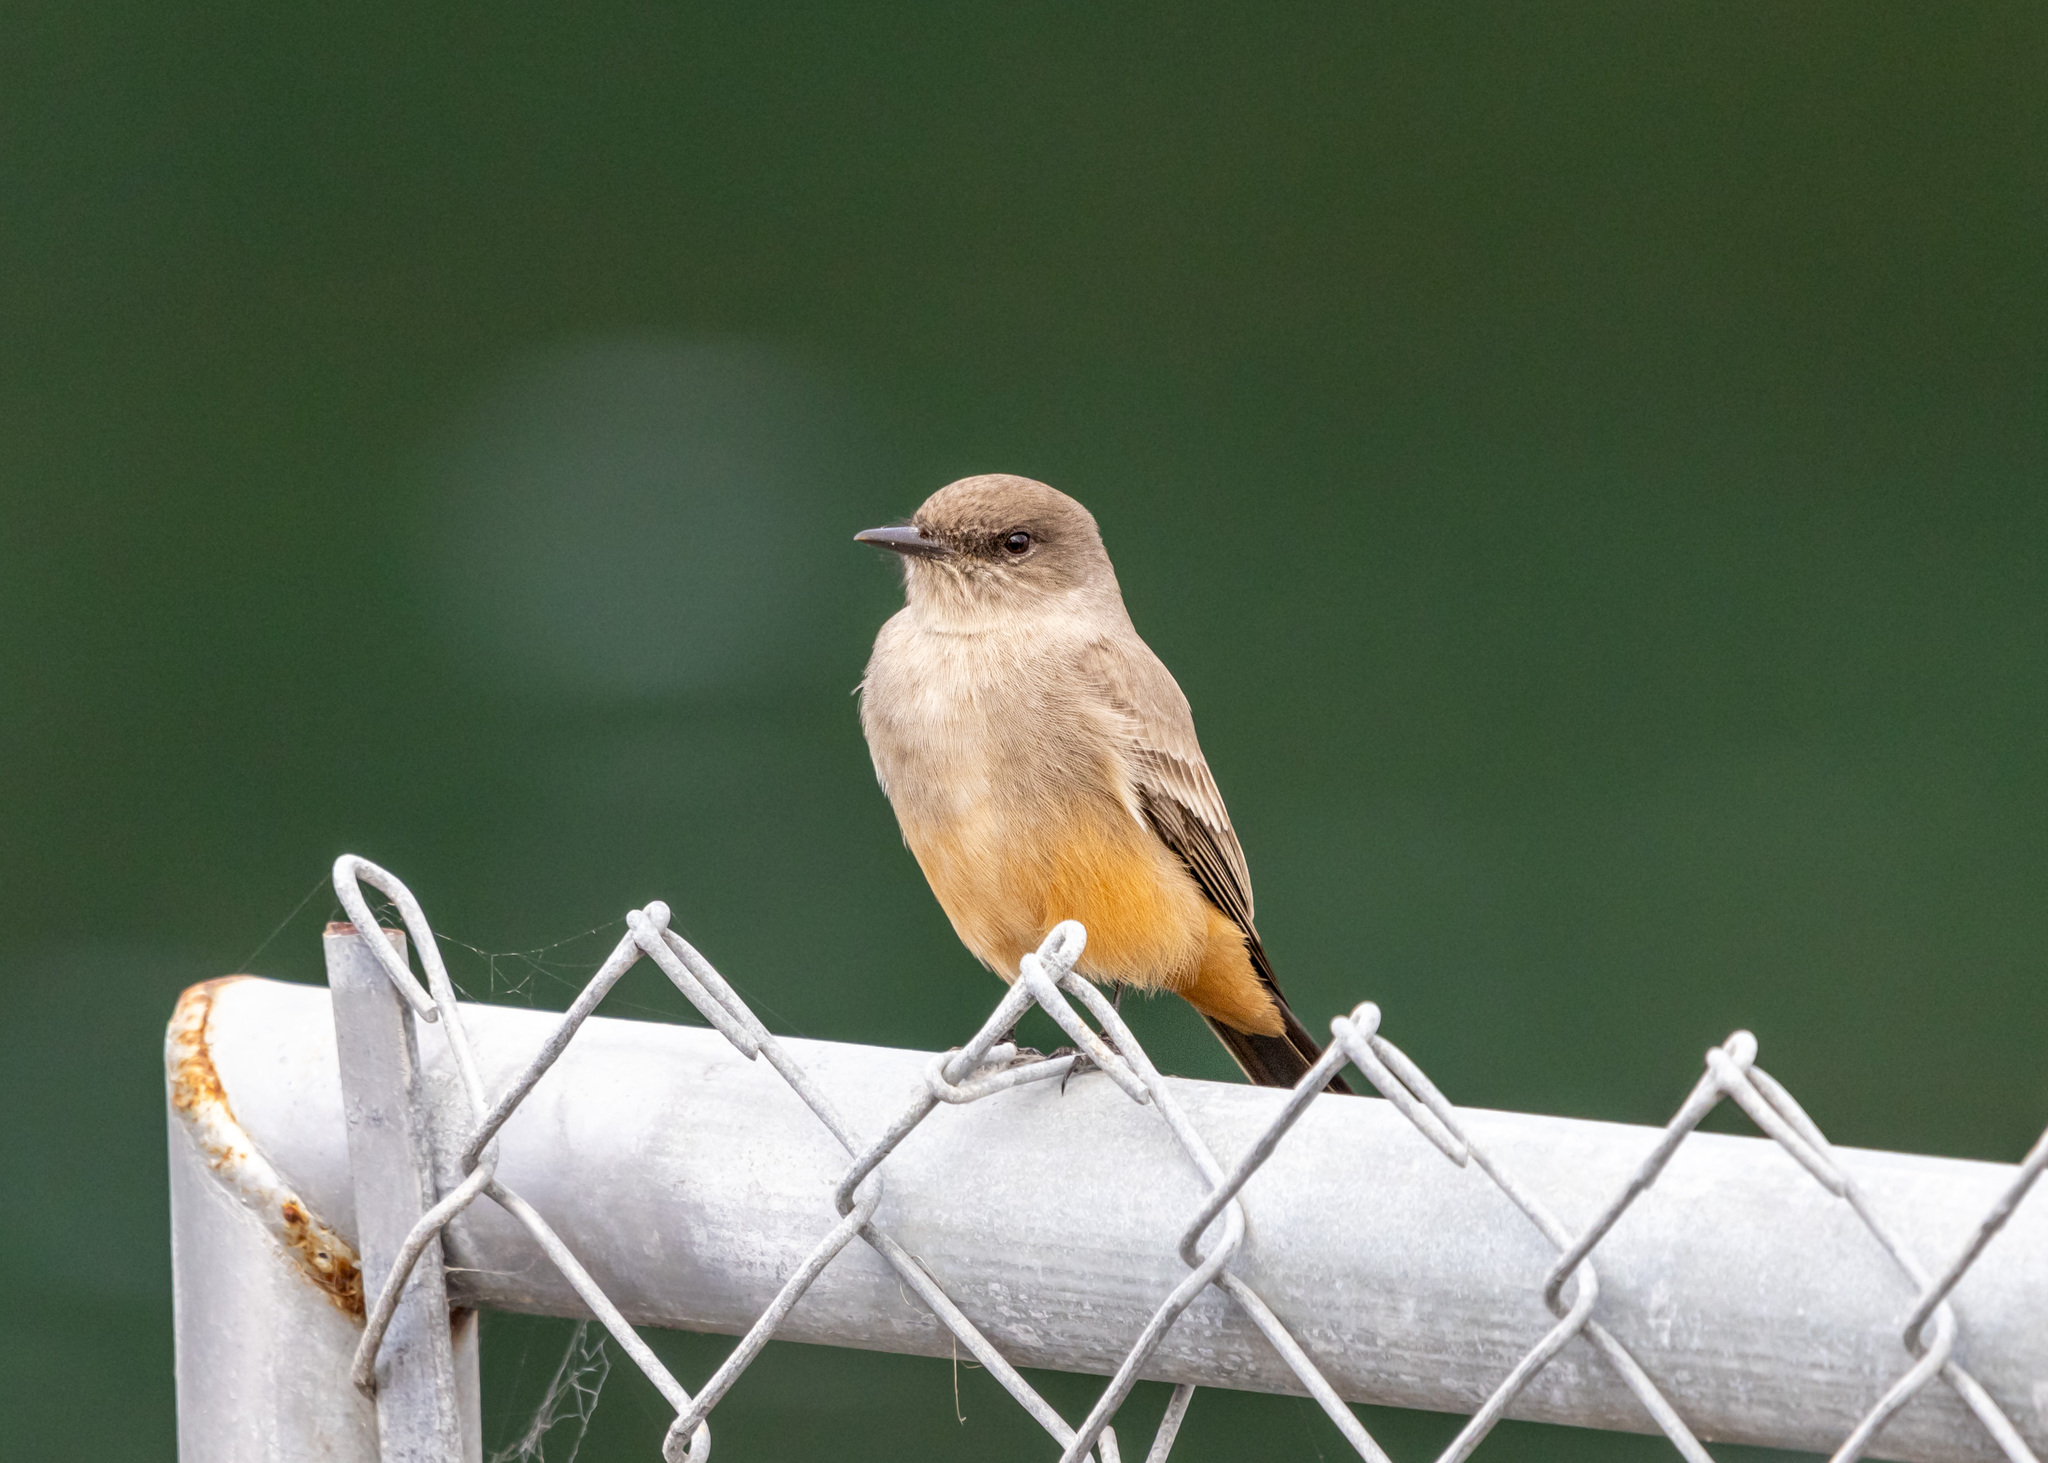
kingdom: Animalia
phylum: Chordata
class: Aves
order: Passeriformes
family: Tyrannidae
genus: Sayornis
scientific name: Sayornis saya
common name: Say's phoebe
